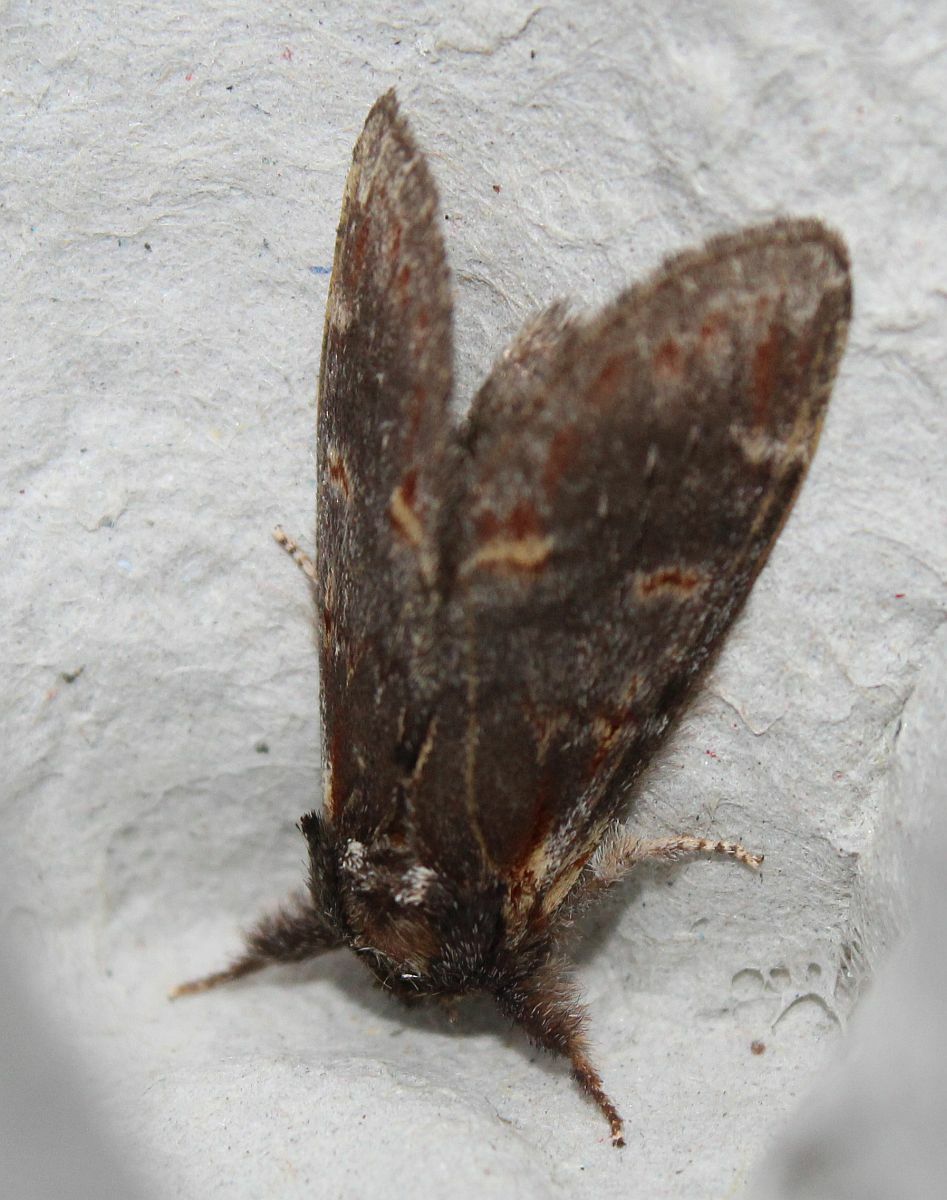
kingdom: Animalia
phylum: Arthropoda
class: Insecta
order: Lepidoptera
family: Notodontidae
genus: Notodonta
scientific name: Notodonta dromedarius
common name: Iron prominent
